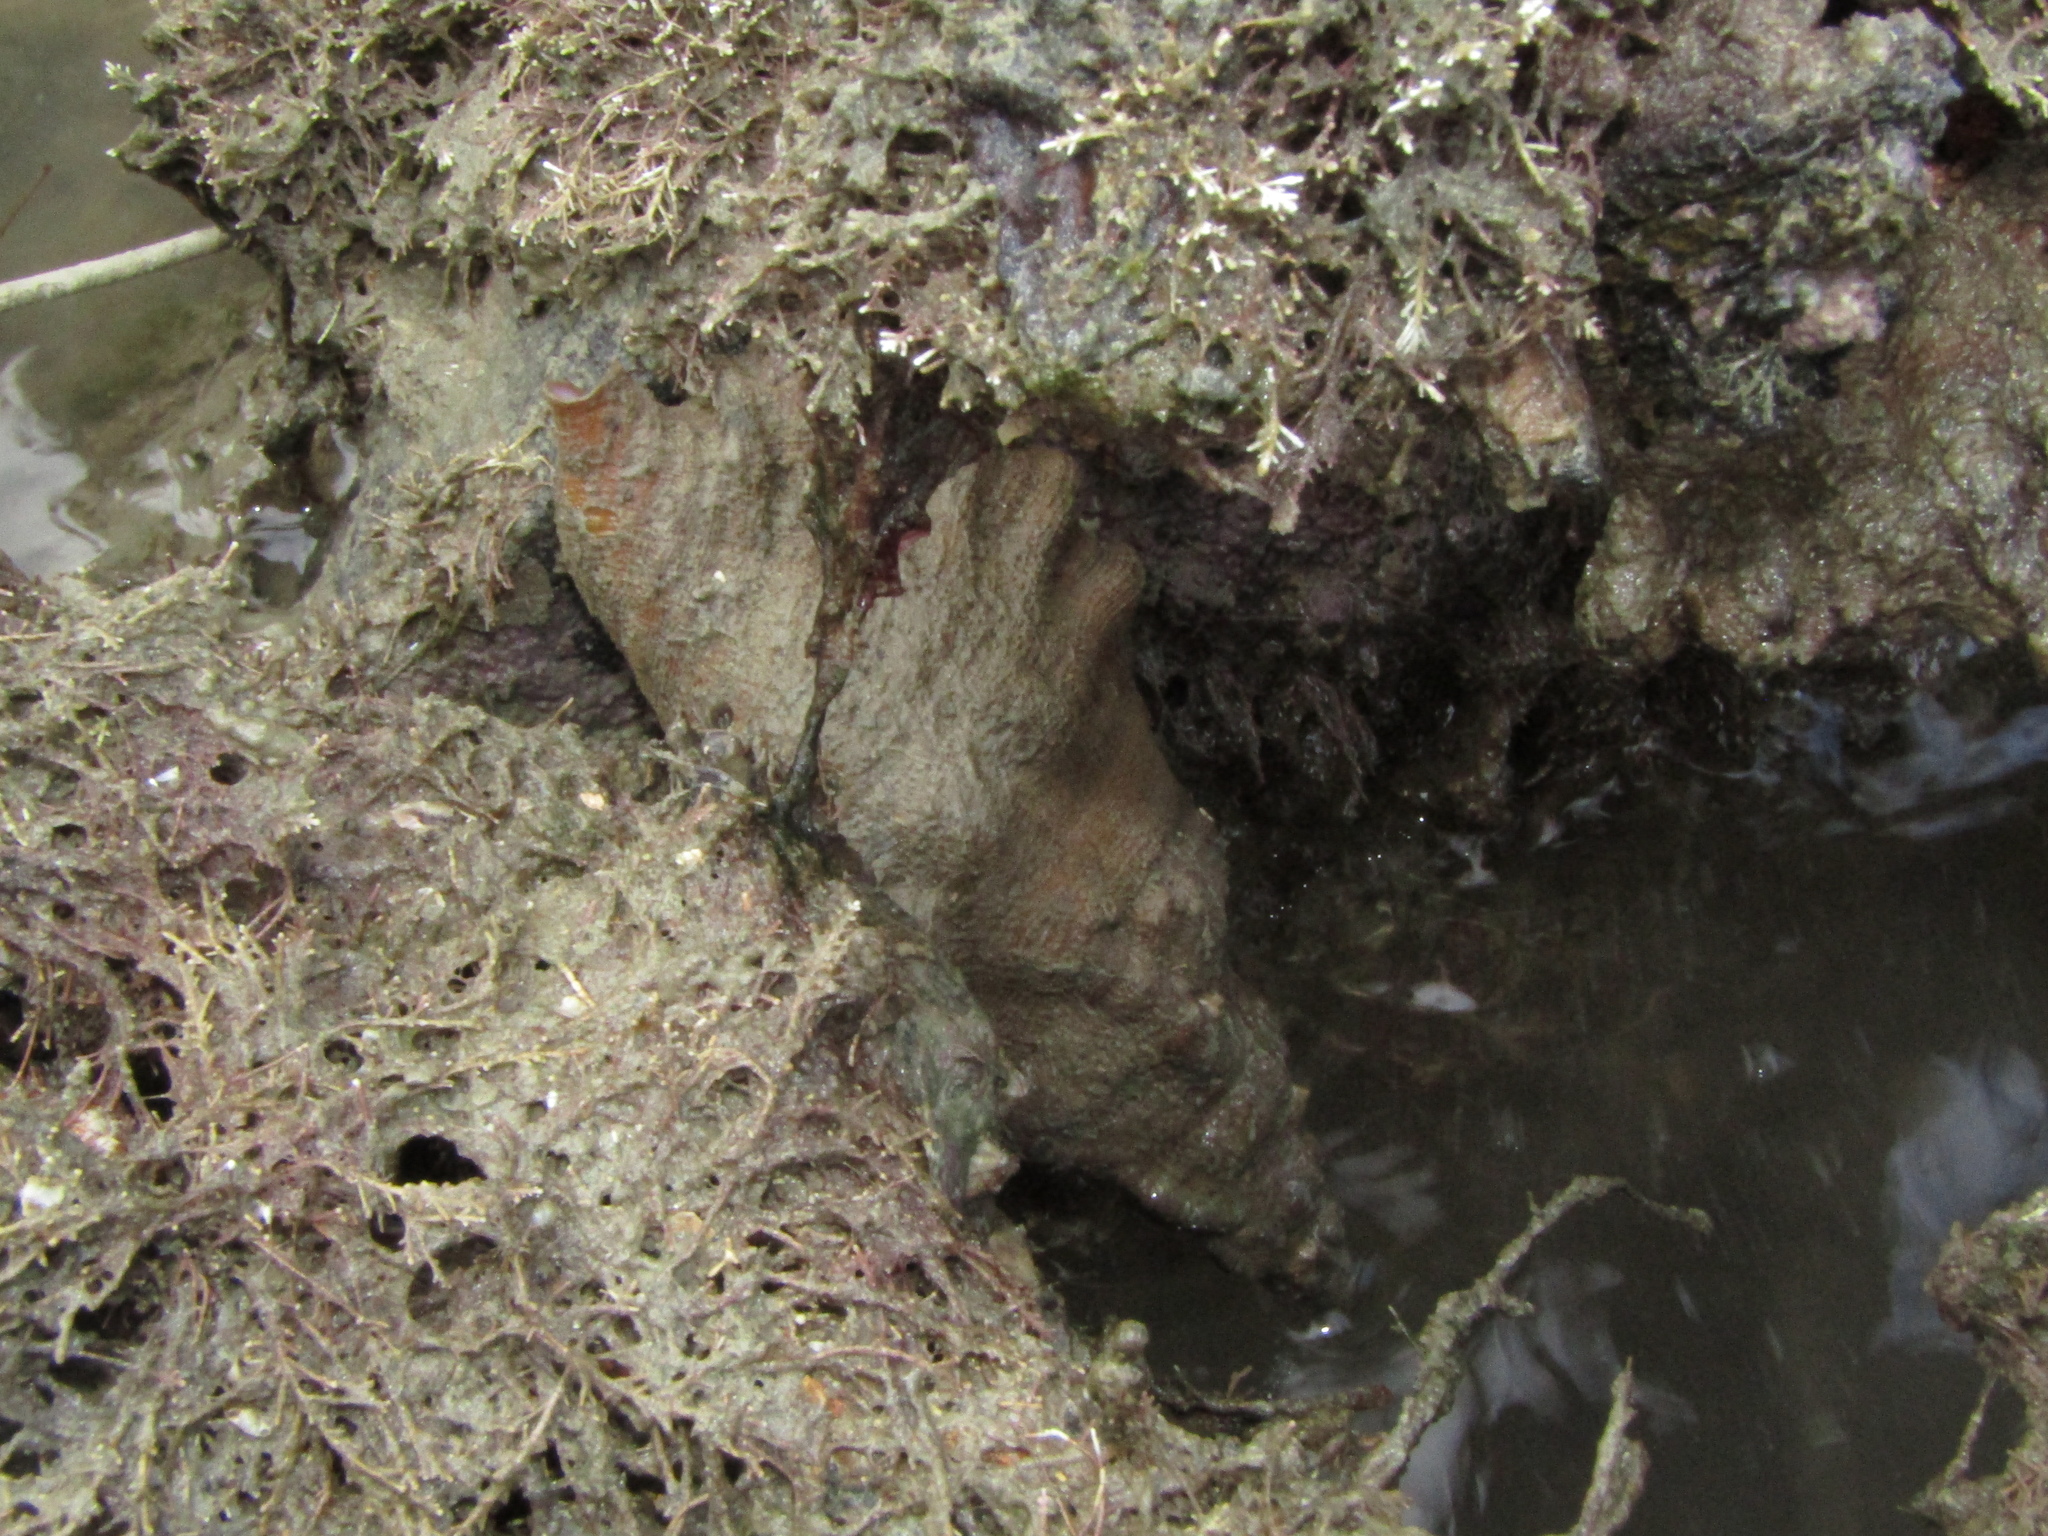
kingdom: Animalia
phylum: Mollusca
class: Gastropoda
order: Littorinimorpha
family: Cymatiidae
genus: Cabestana
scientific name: Cabestana spengleri
